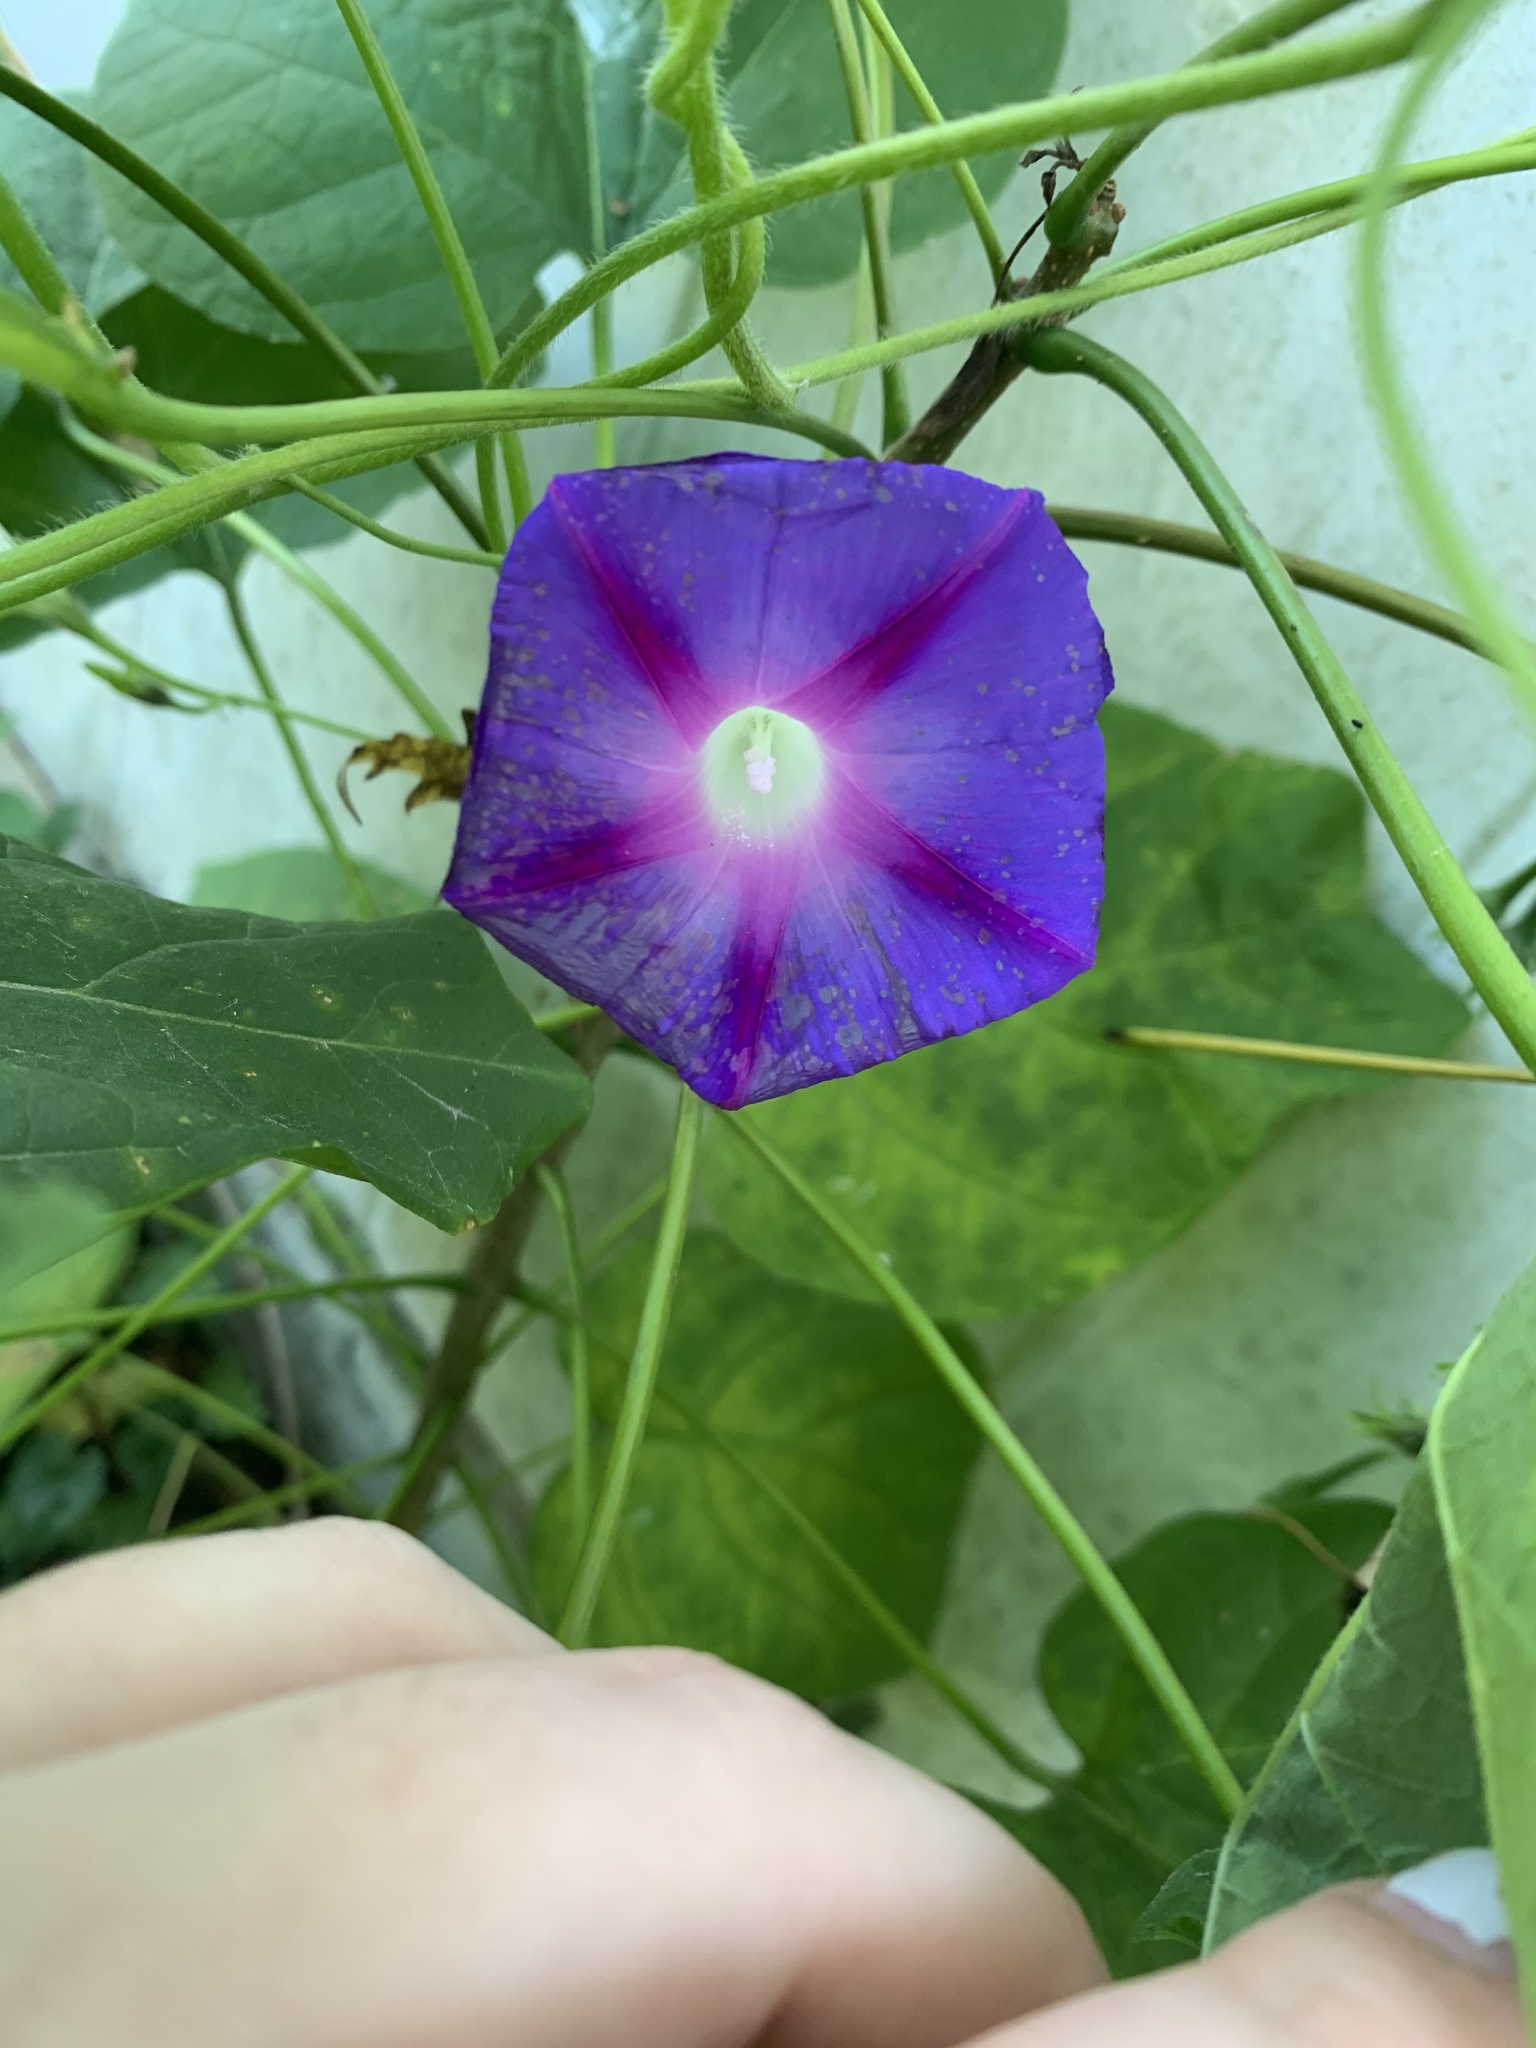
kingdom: Plantae
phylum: Tracheophyta
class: Magnoliopsida
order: Solanales
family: Convolvulaceae
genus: Ipomoea
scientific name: Ipomoea purpurea
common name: Common morning-glory
